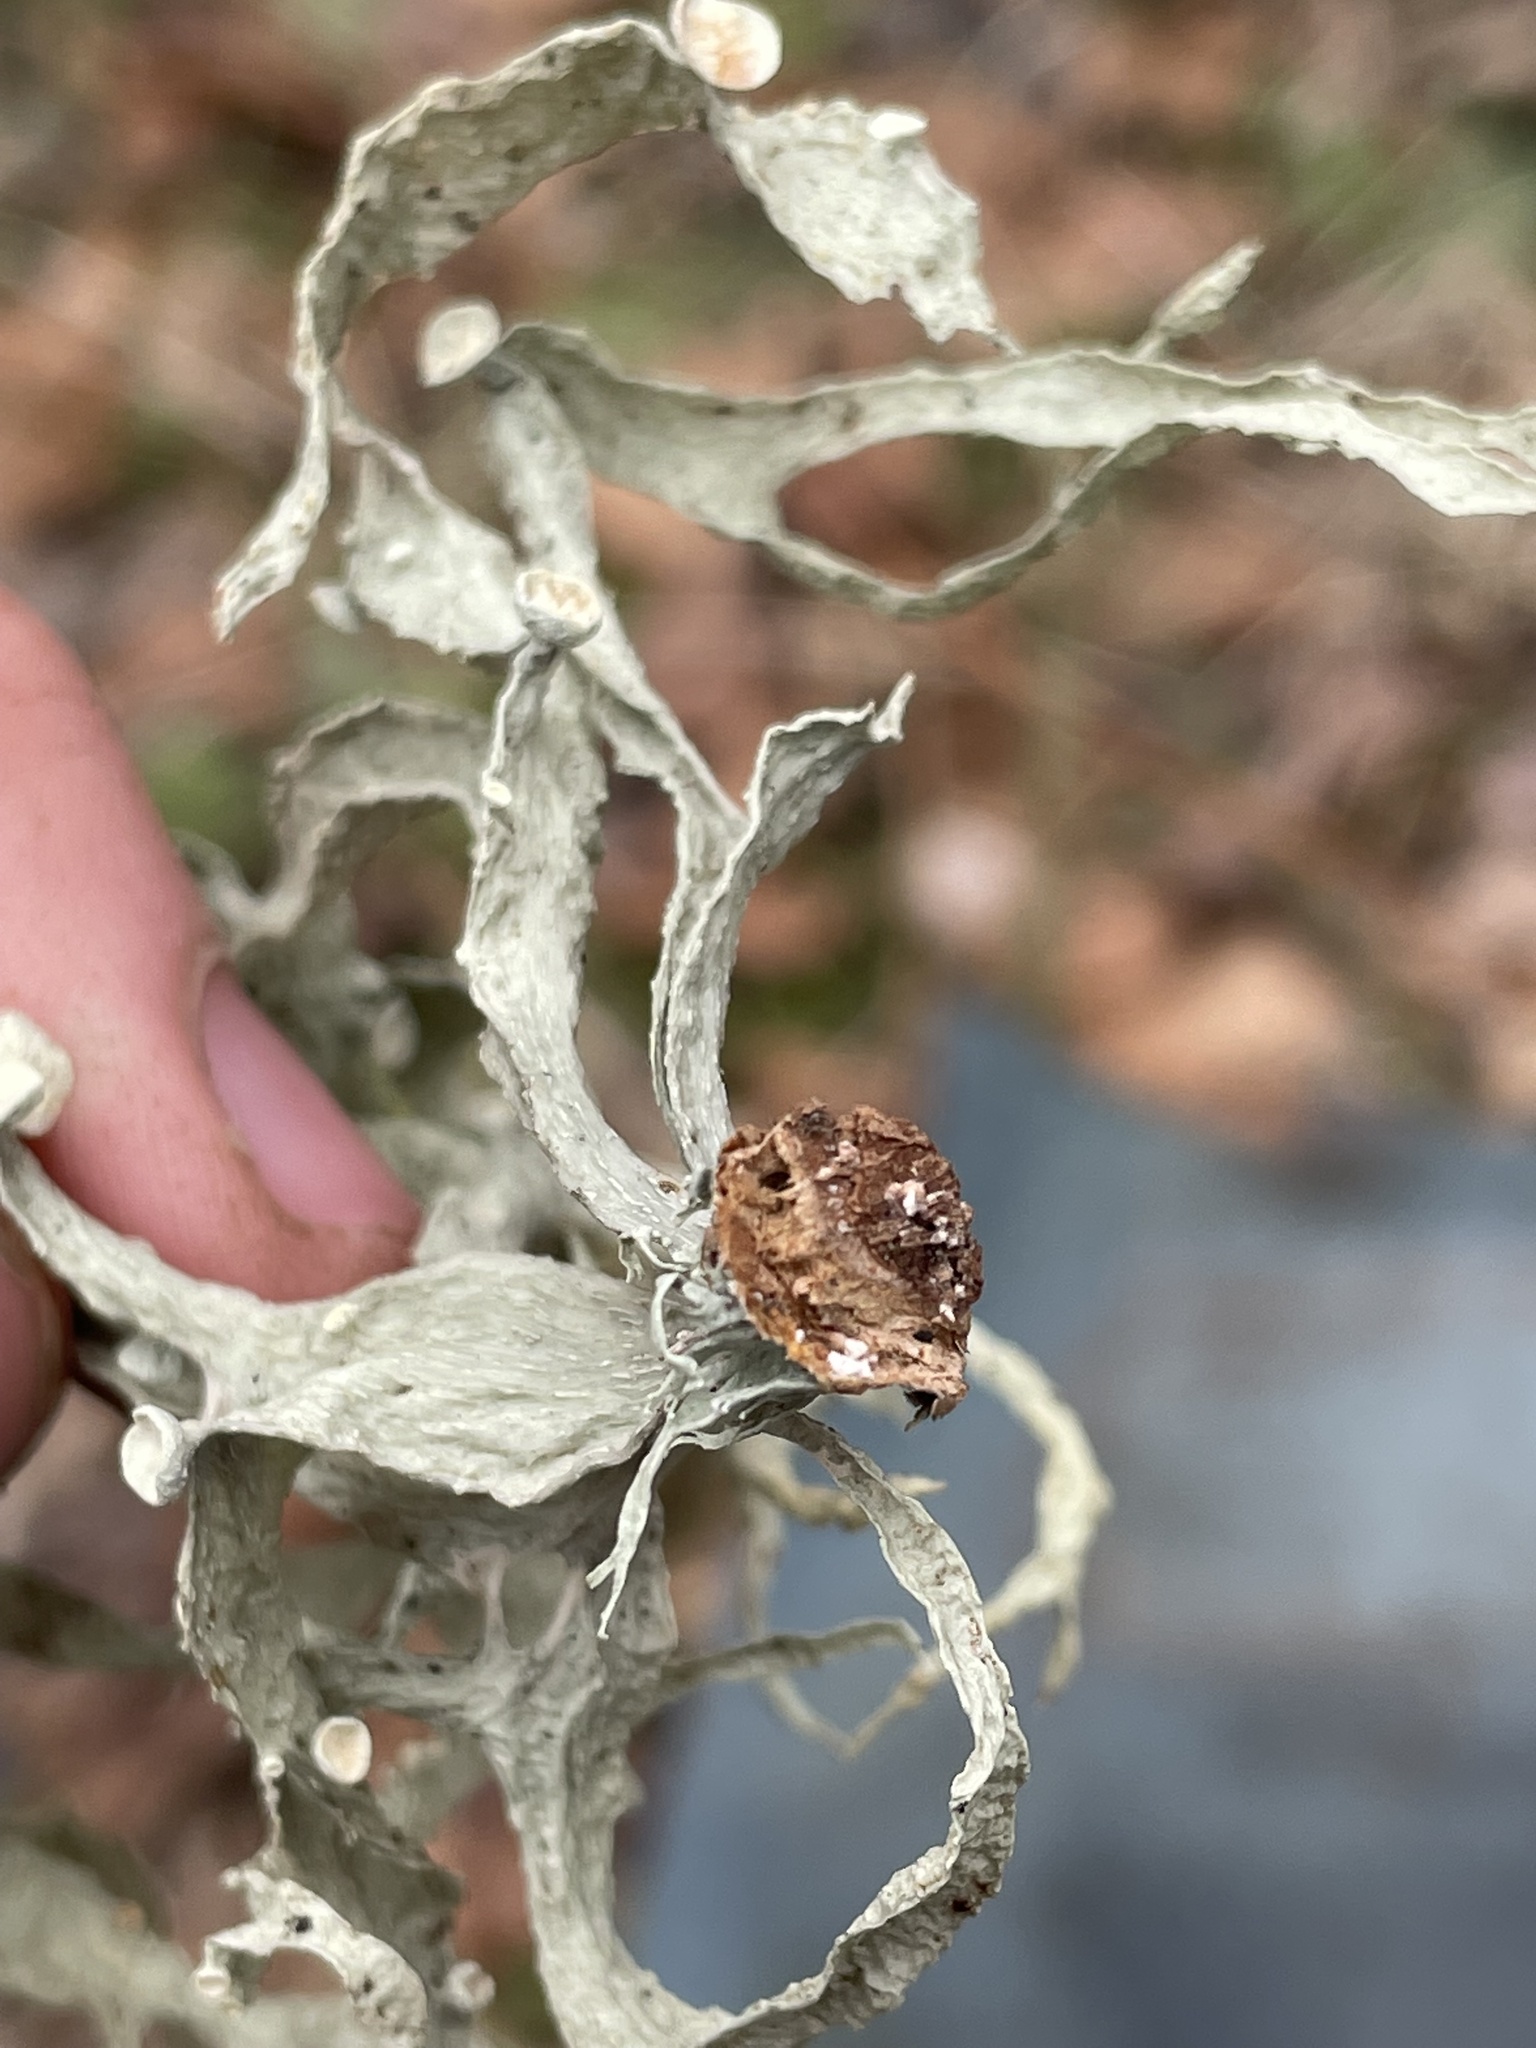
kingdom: Fungi
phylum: Ascomycota
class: Lecanoromycetes
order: Lecanorales
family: Ramalinaceae
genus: Ramalina
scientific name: Ramalina fraxinea
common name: Cartilage lichen
